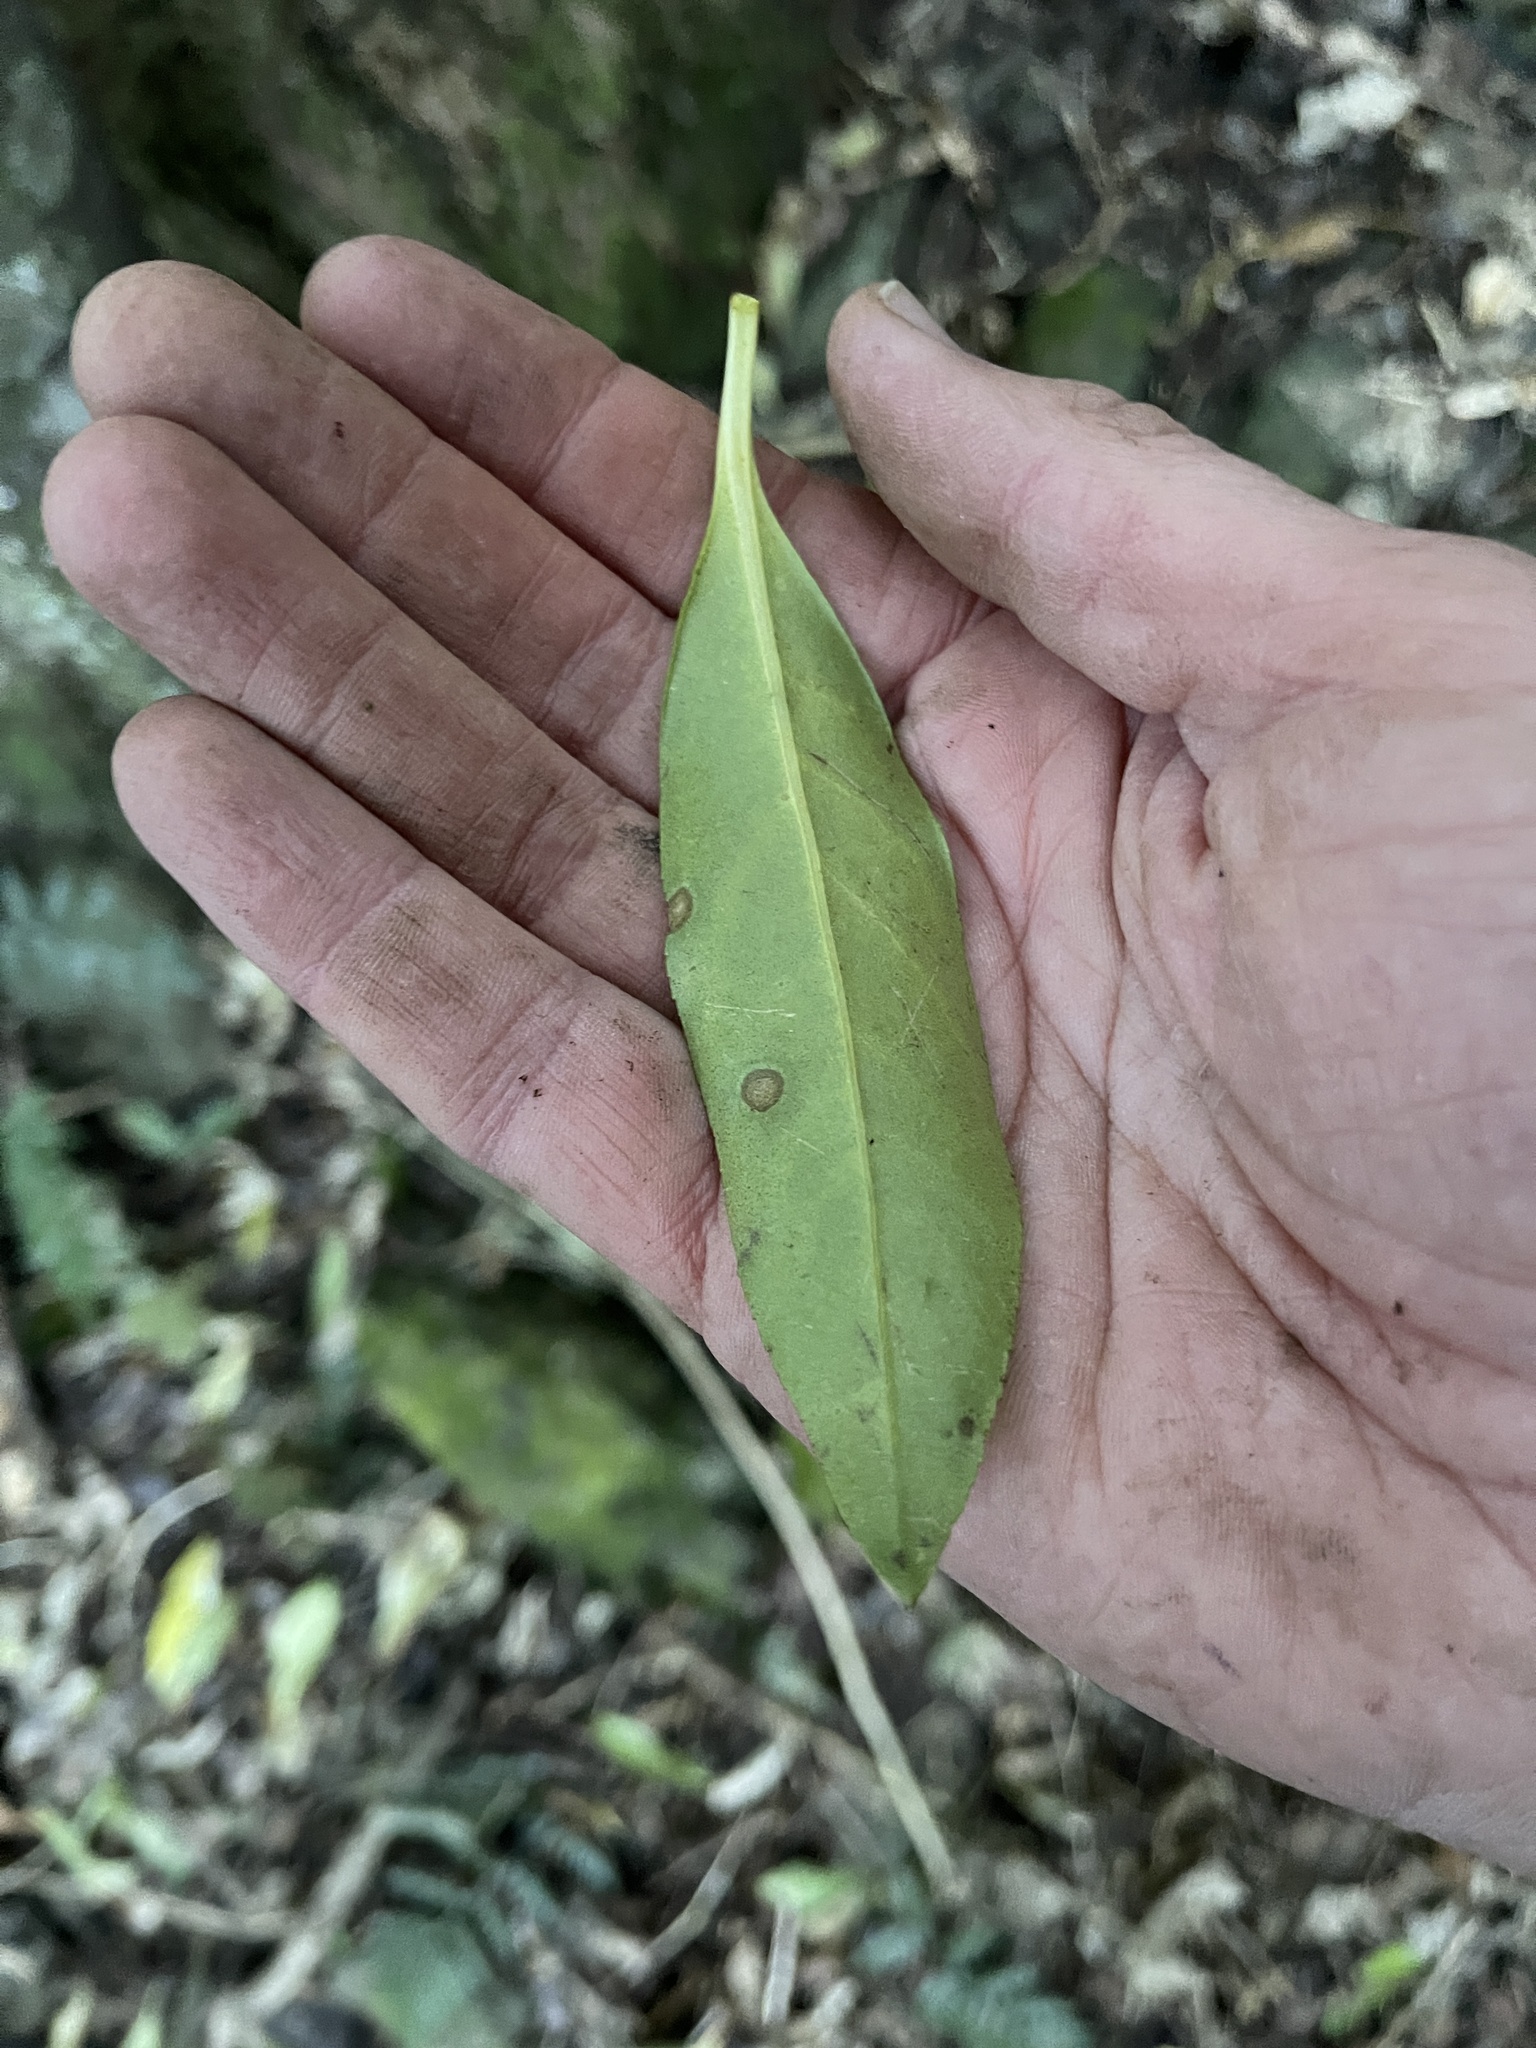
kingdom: Plantae
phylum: Tracheophyta
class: Magnoliopsida
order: Lamiales
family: Scrophulariaceae
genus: Myoporum
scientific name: Myoporum laetum
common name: Ngaio tree
